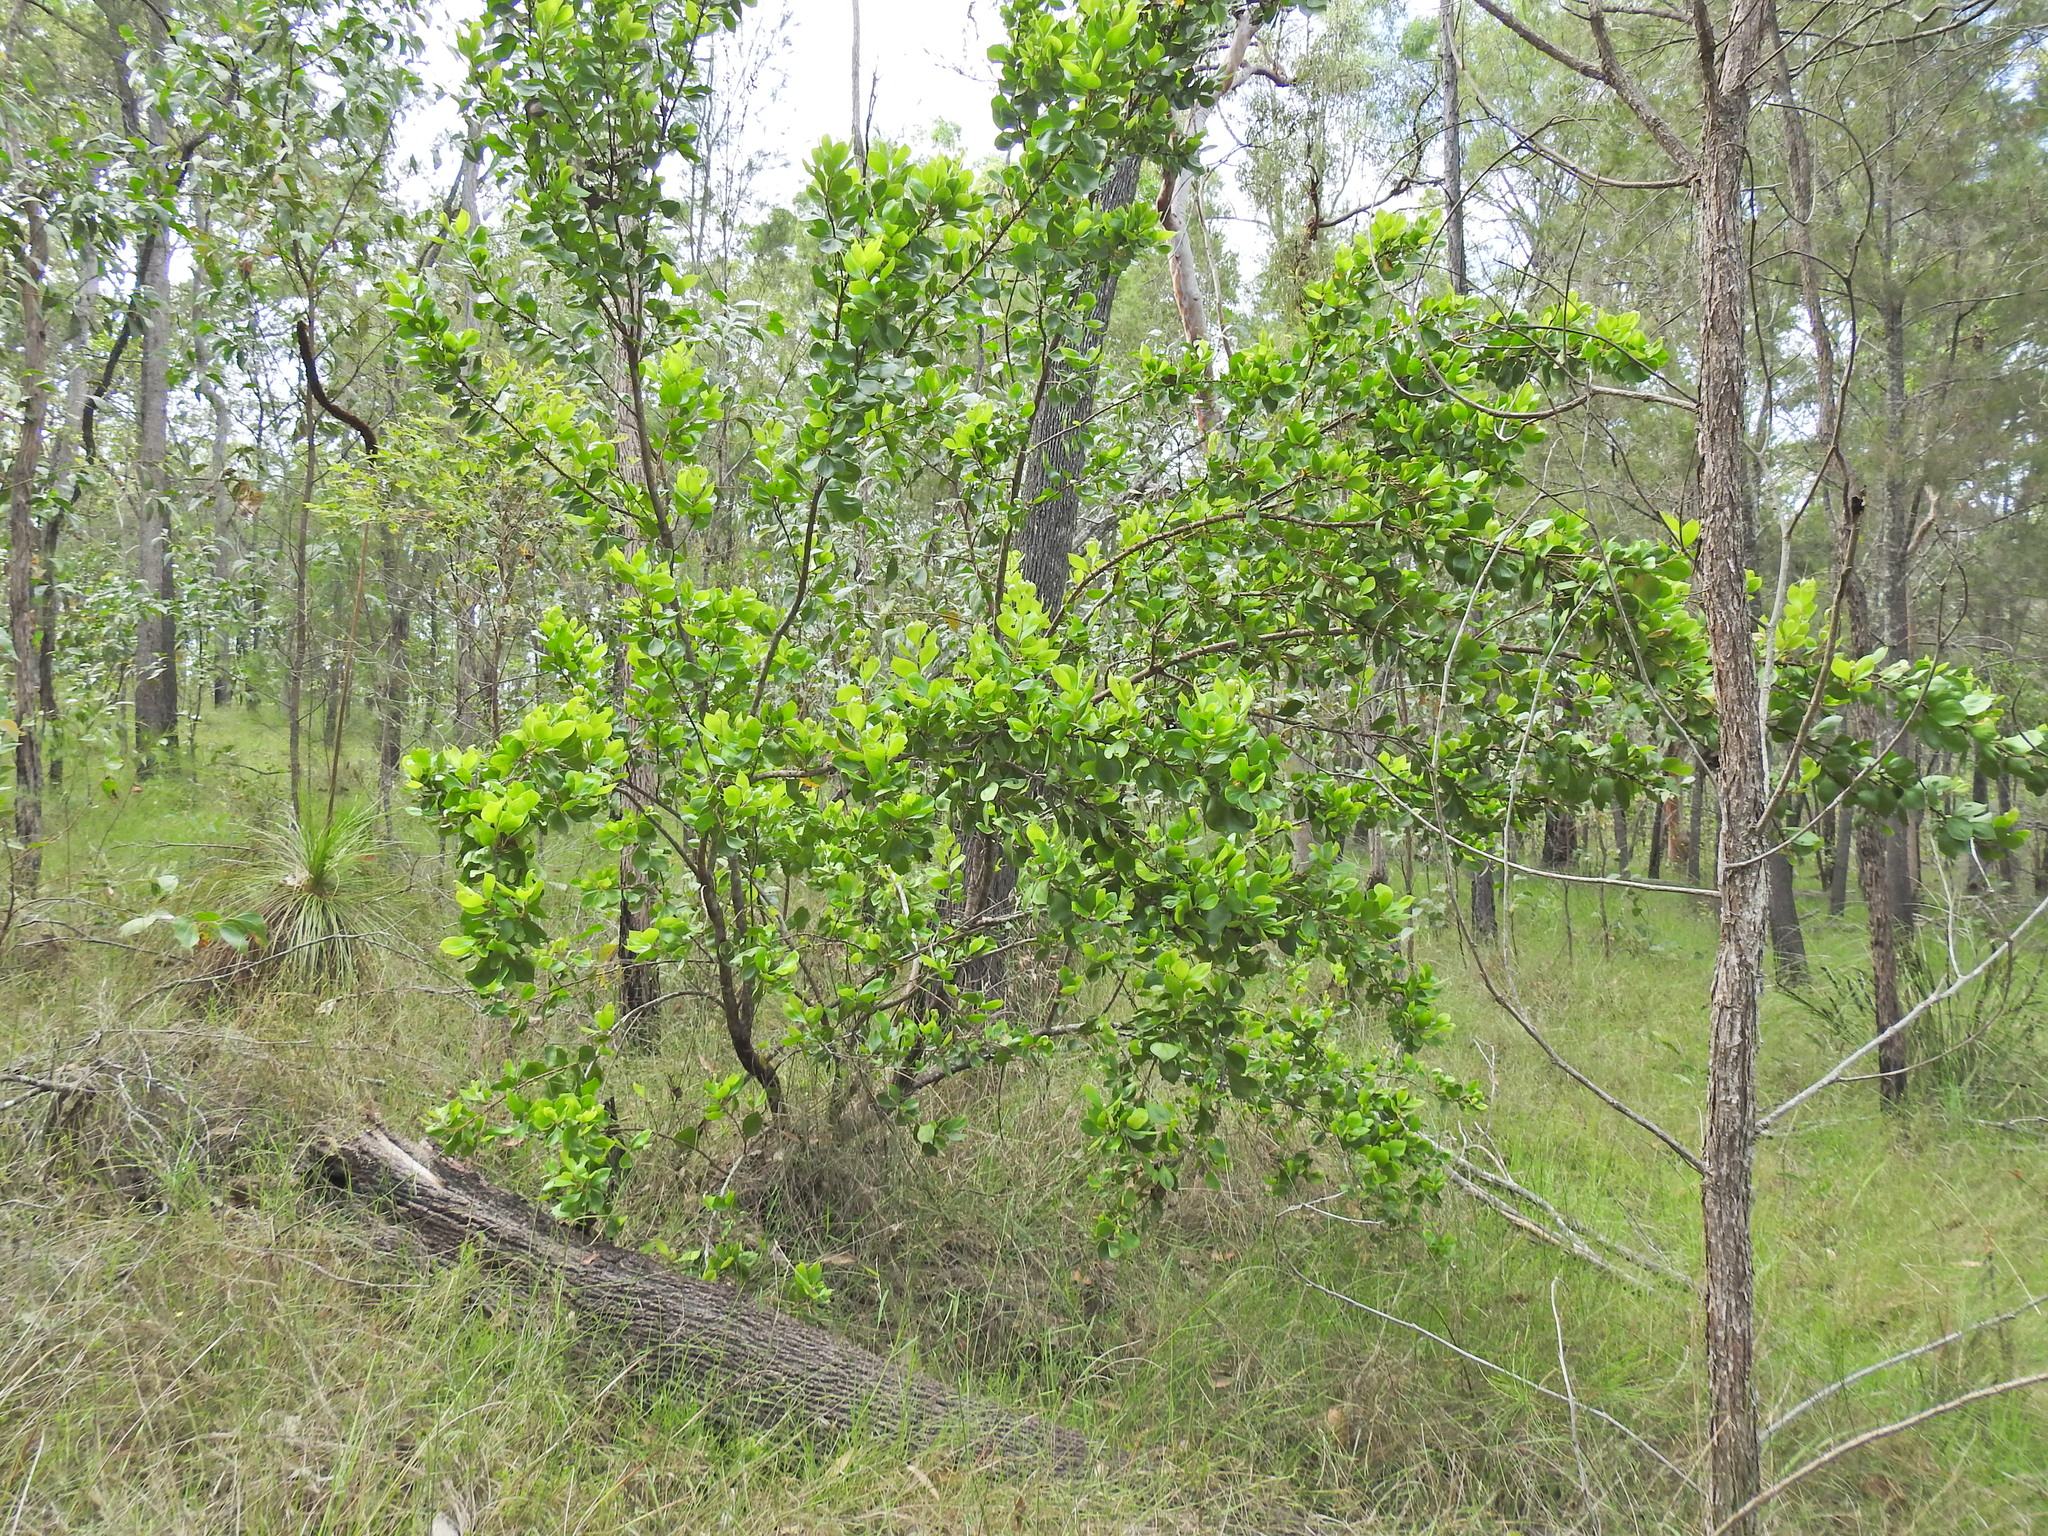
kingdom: Plantae
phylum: Tracheophyta
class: Magnoliopsida
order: Proteales
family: Proteaceae
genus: Persoonia
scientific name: Persoonia cornifolia
